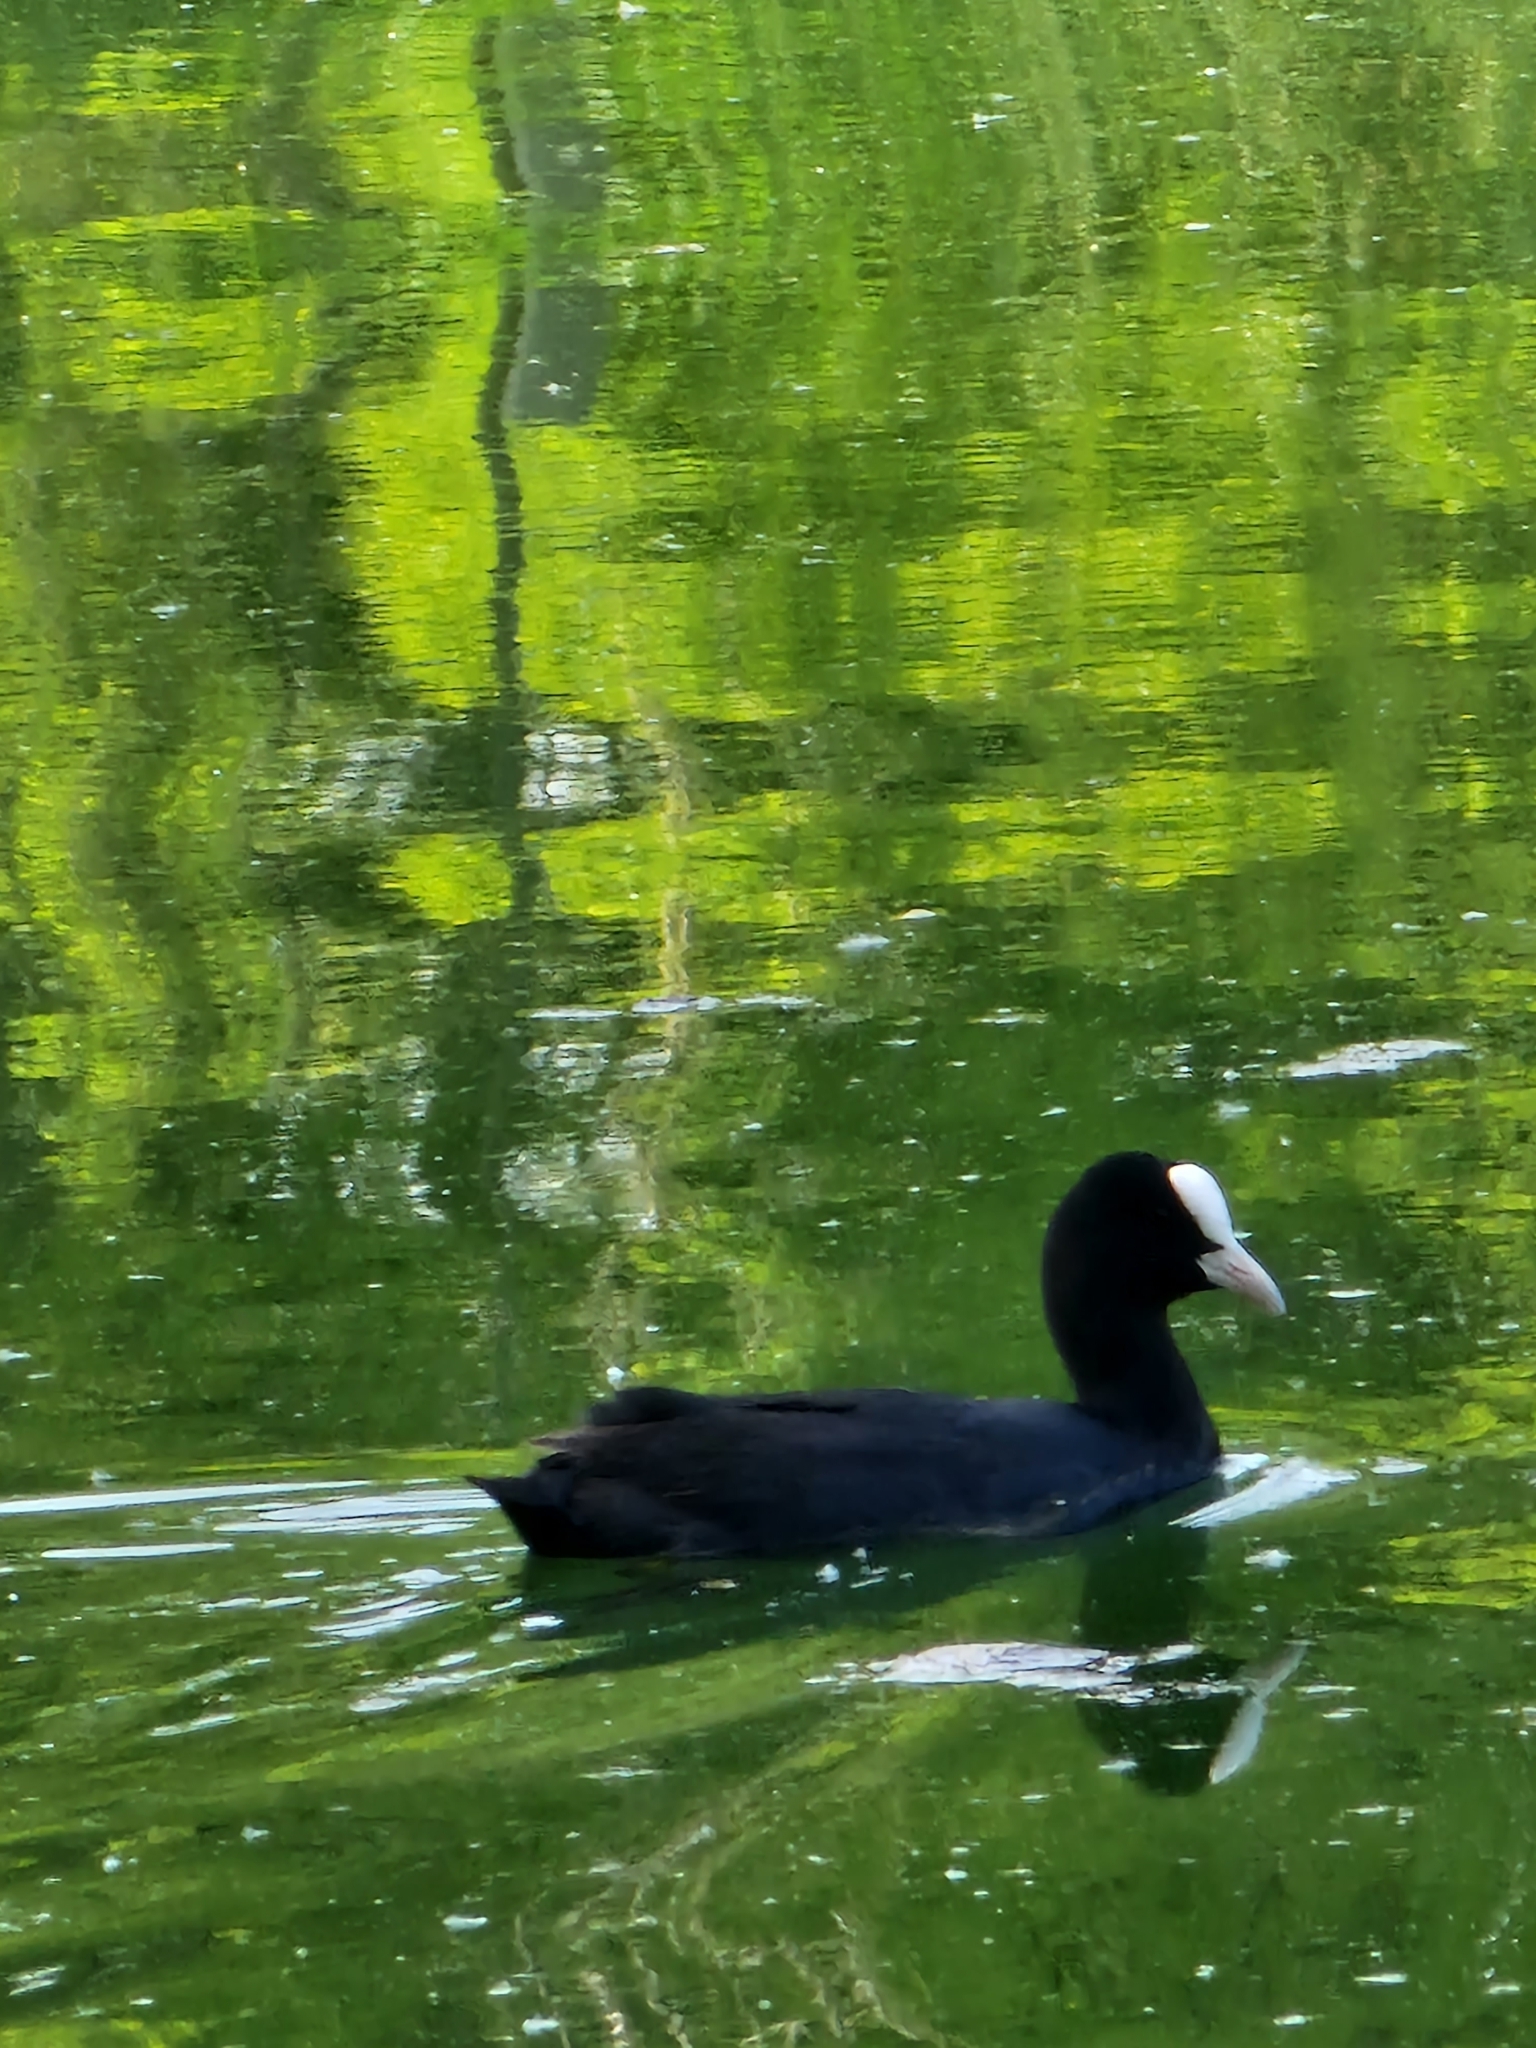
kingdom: Animalia
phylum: Chordata
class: Aves
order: Gruiformes
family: Rallidae
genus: Fulica
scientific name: Fulica atra
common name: Eurasian coot
